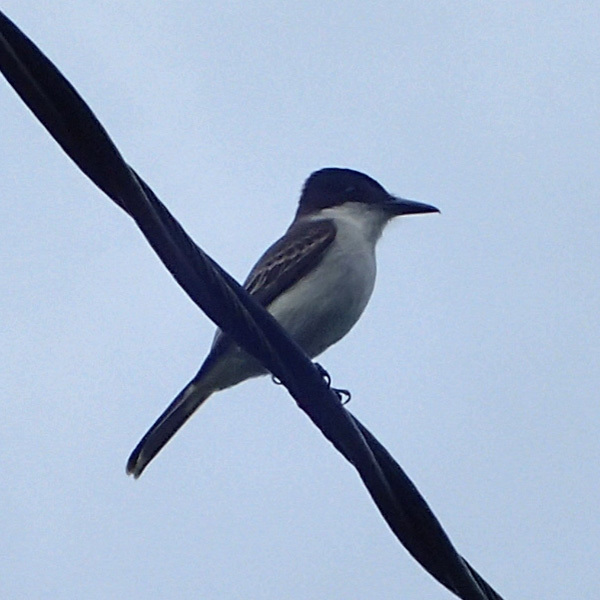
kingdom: Animalia
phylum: Chordata
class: Aves
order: Passeriformes
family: Tyrannidae
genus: Tyrannus
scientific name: Tyrannus caudifasciatus
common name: Loggerhead kingbird
